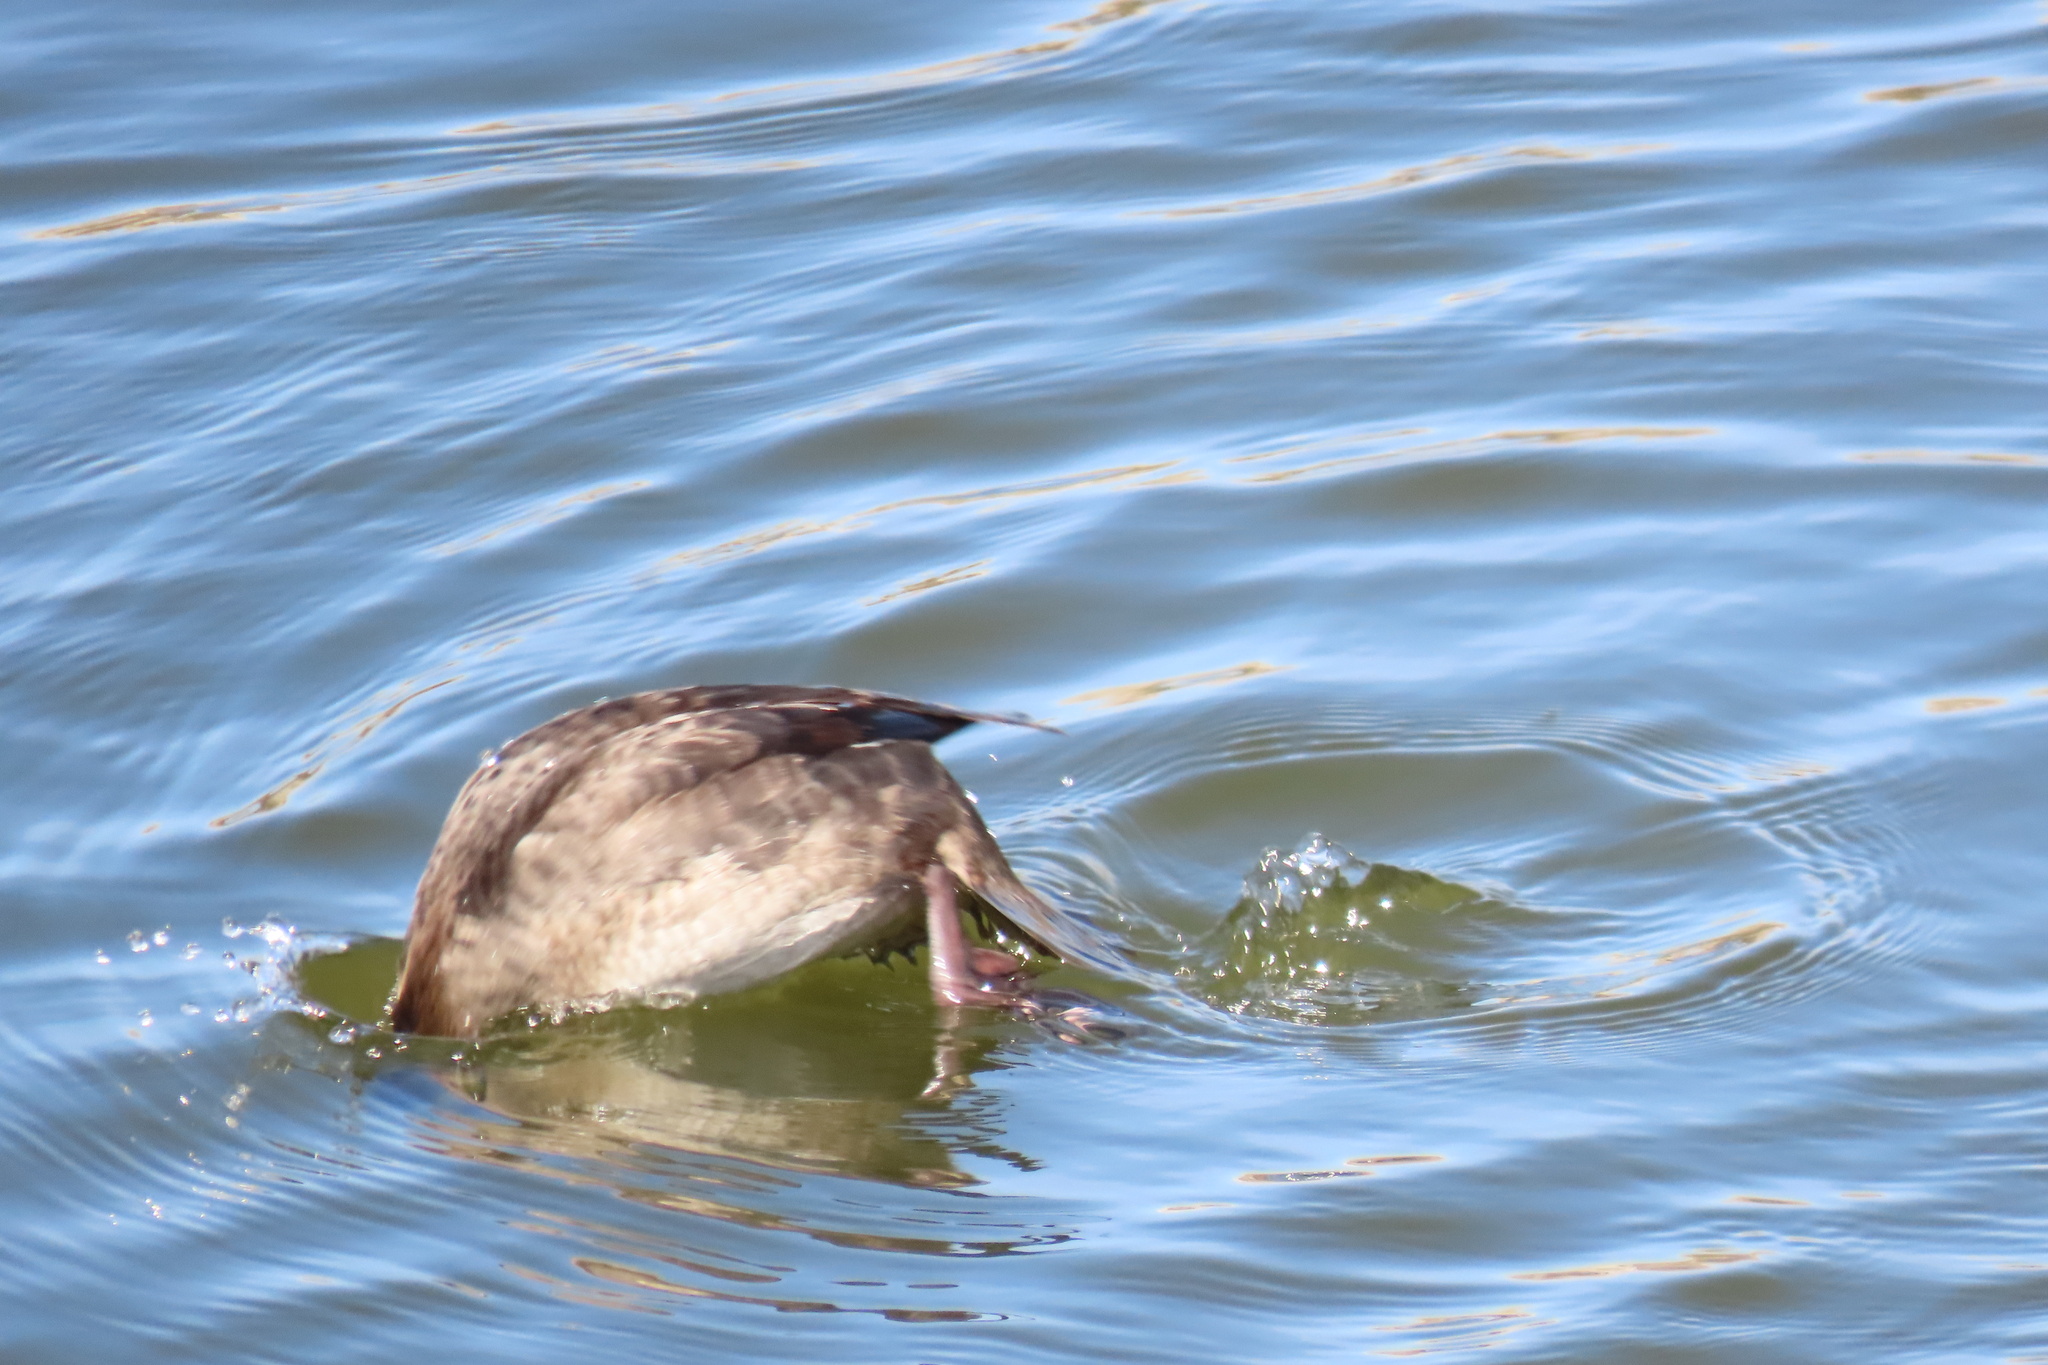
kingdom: Animalia
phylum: Chordata
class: Aves
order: Anseriformes
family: Anatidae
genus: Bucephala
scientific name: Bucephala albeola
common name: Bufflehead
